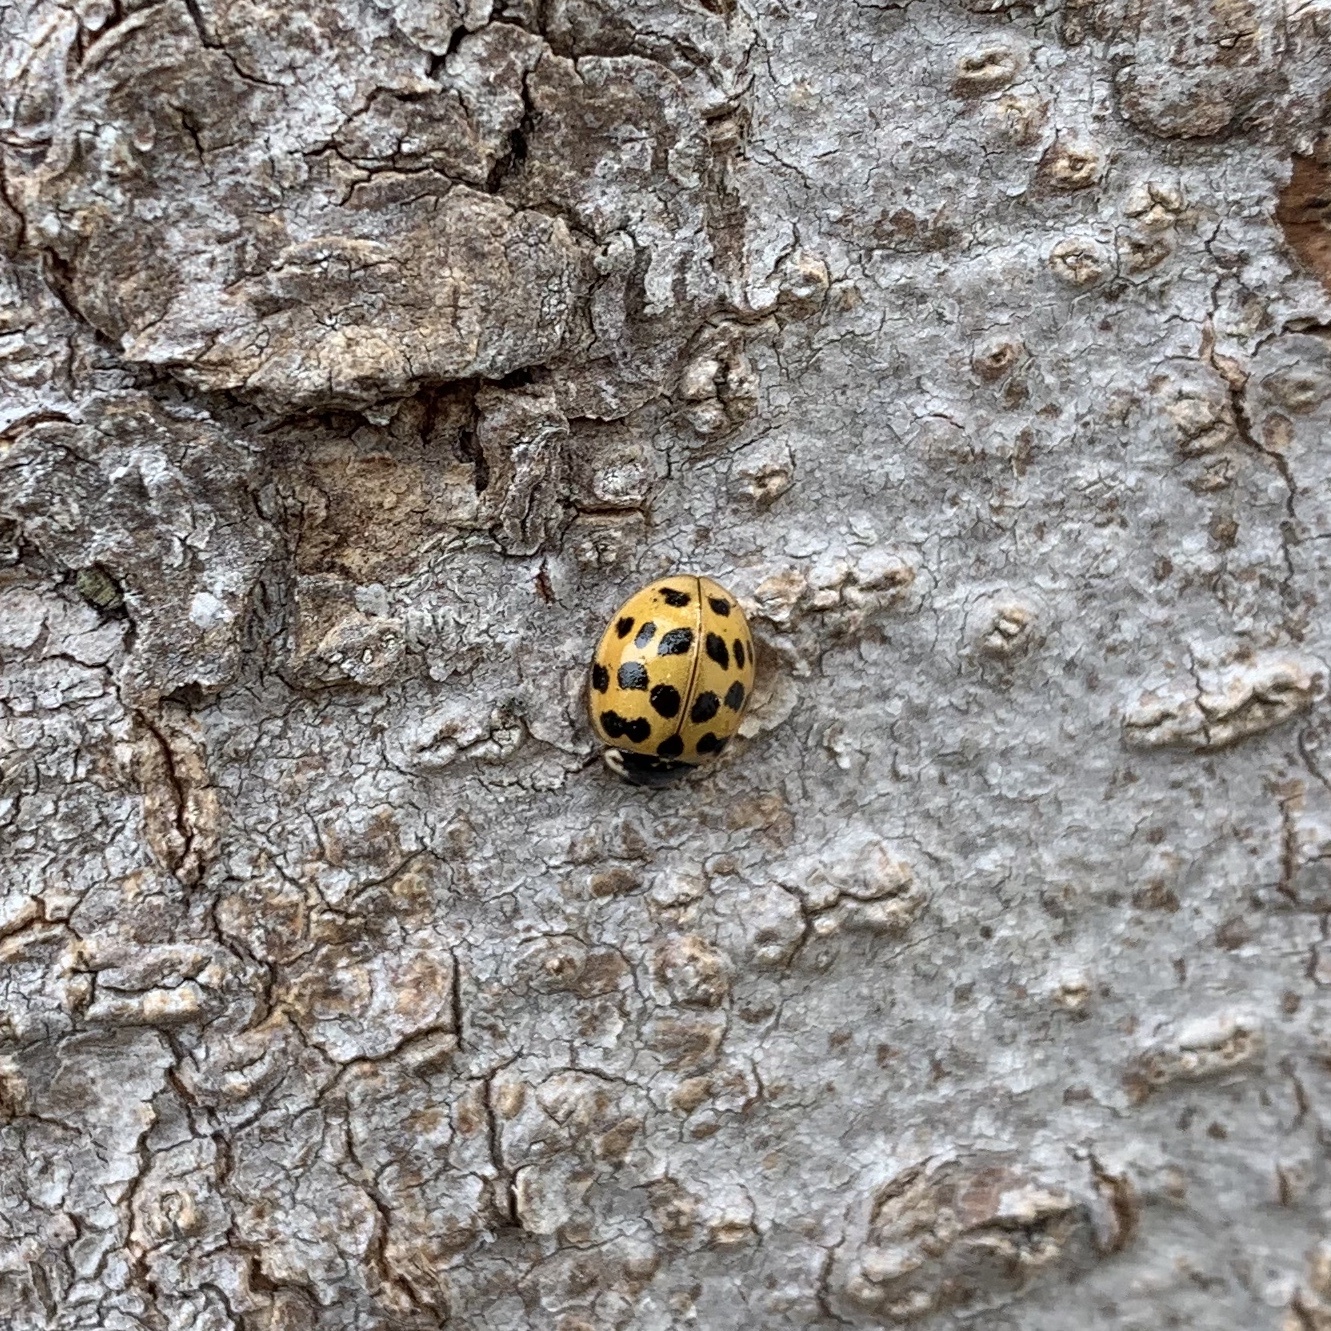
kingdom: Animalia
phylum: Arthropoda
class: Insecta
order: Coleoptera
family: Coccinellidae
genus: Harmonia
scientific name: Harmonia axyridis
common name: Harlequin ladybird
